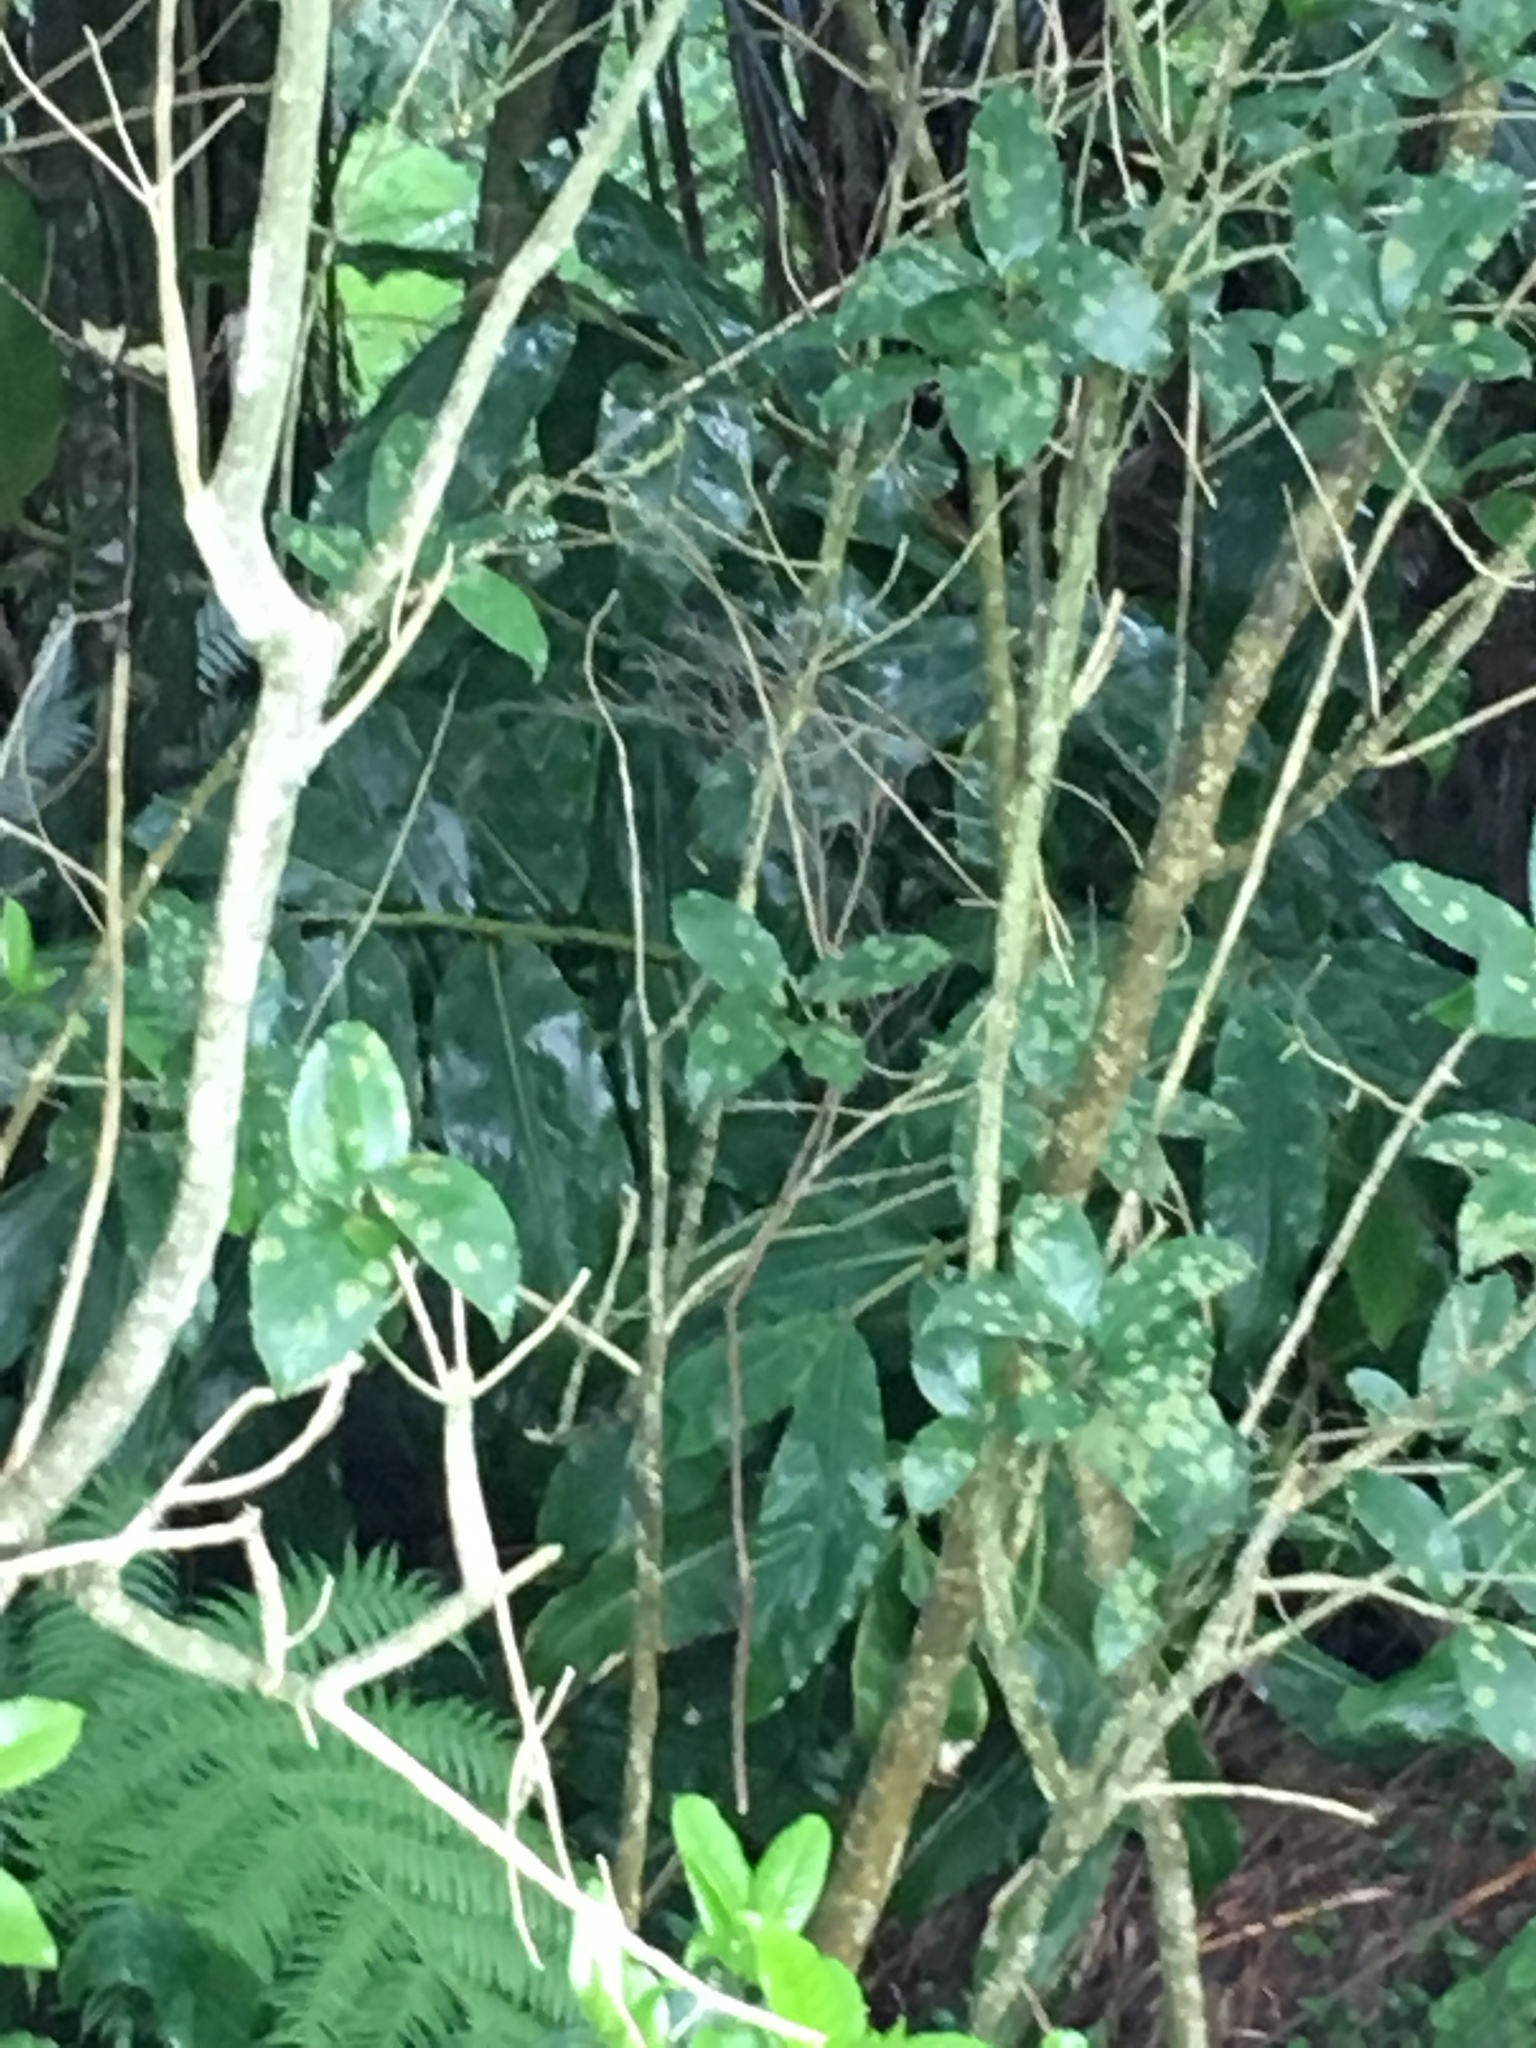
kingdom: Plantae
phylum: Tracheophyta
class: Magnoliopsida
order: Malpighiales
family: Violaceae
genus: Melicytus
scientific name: Melicytus ramiflorus
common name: Mahoe
